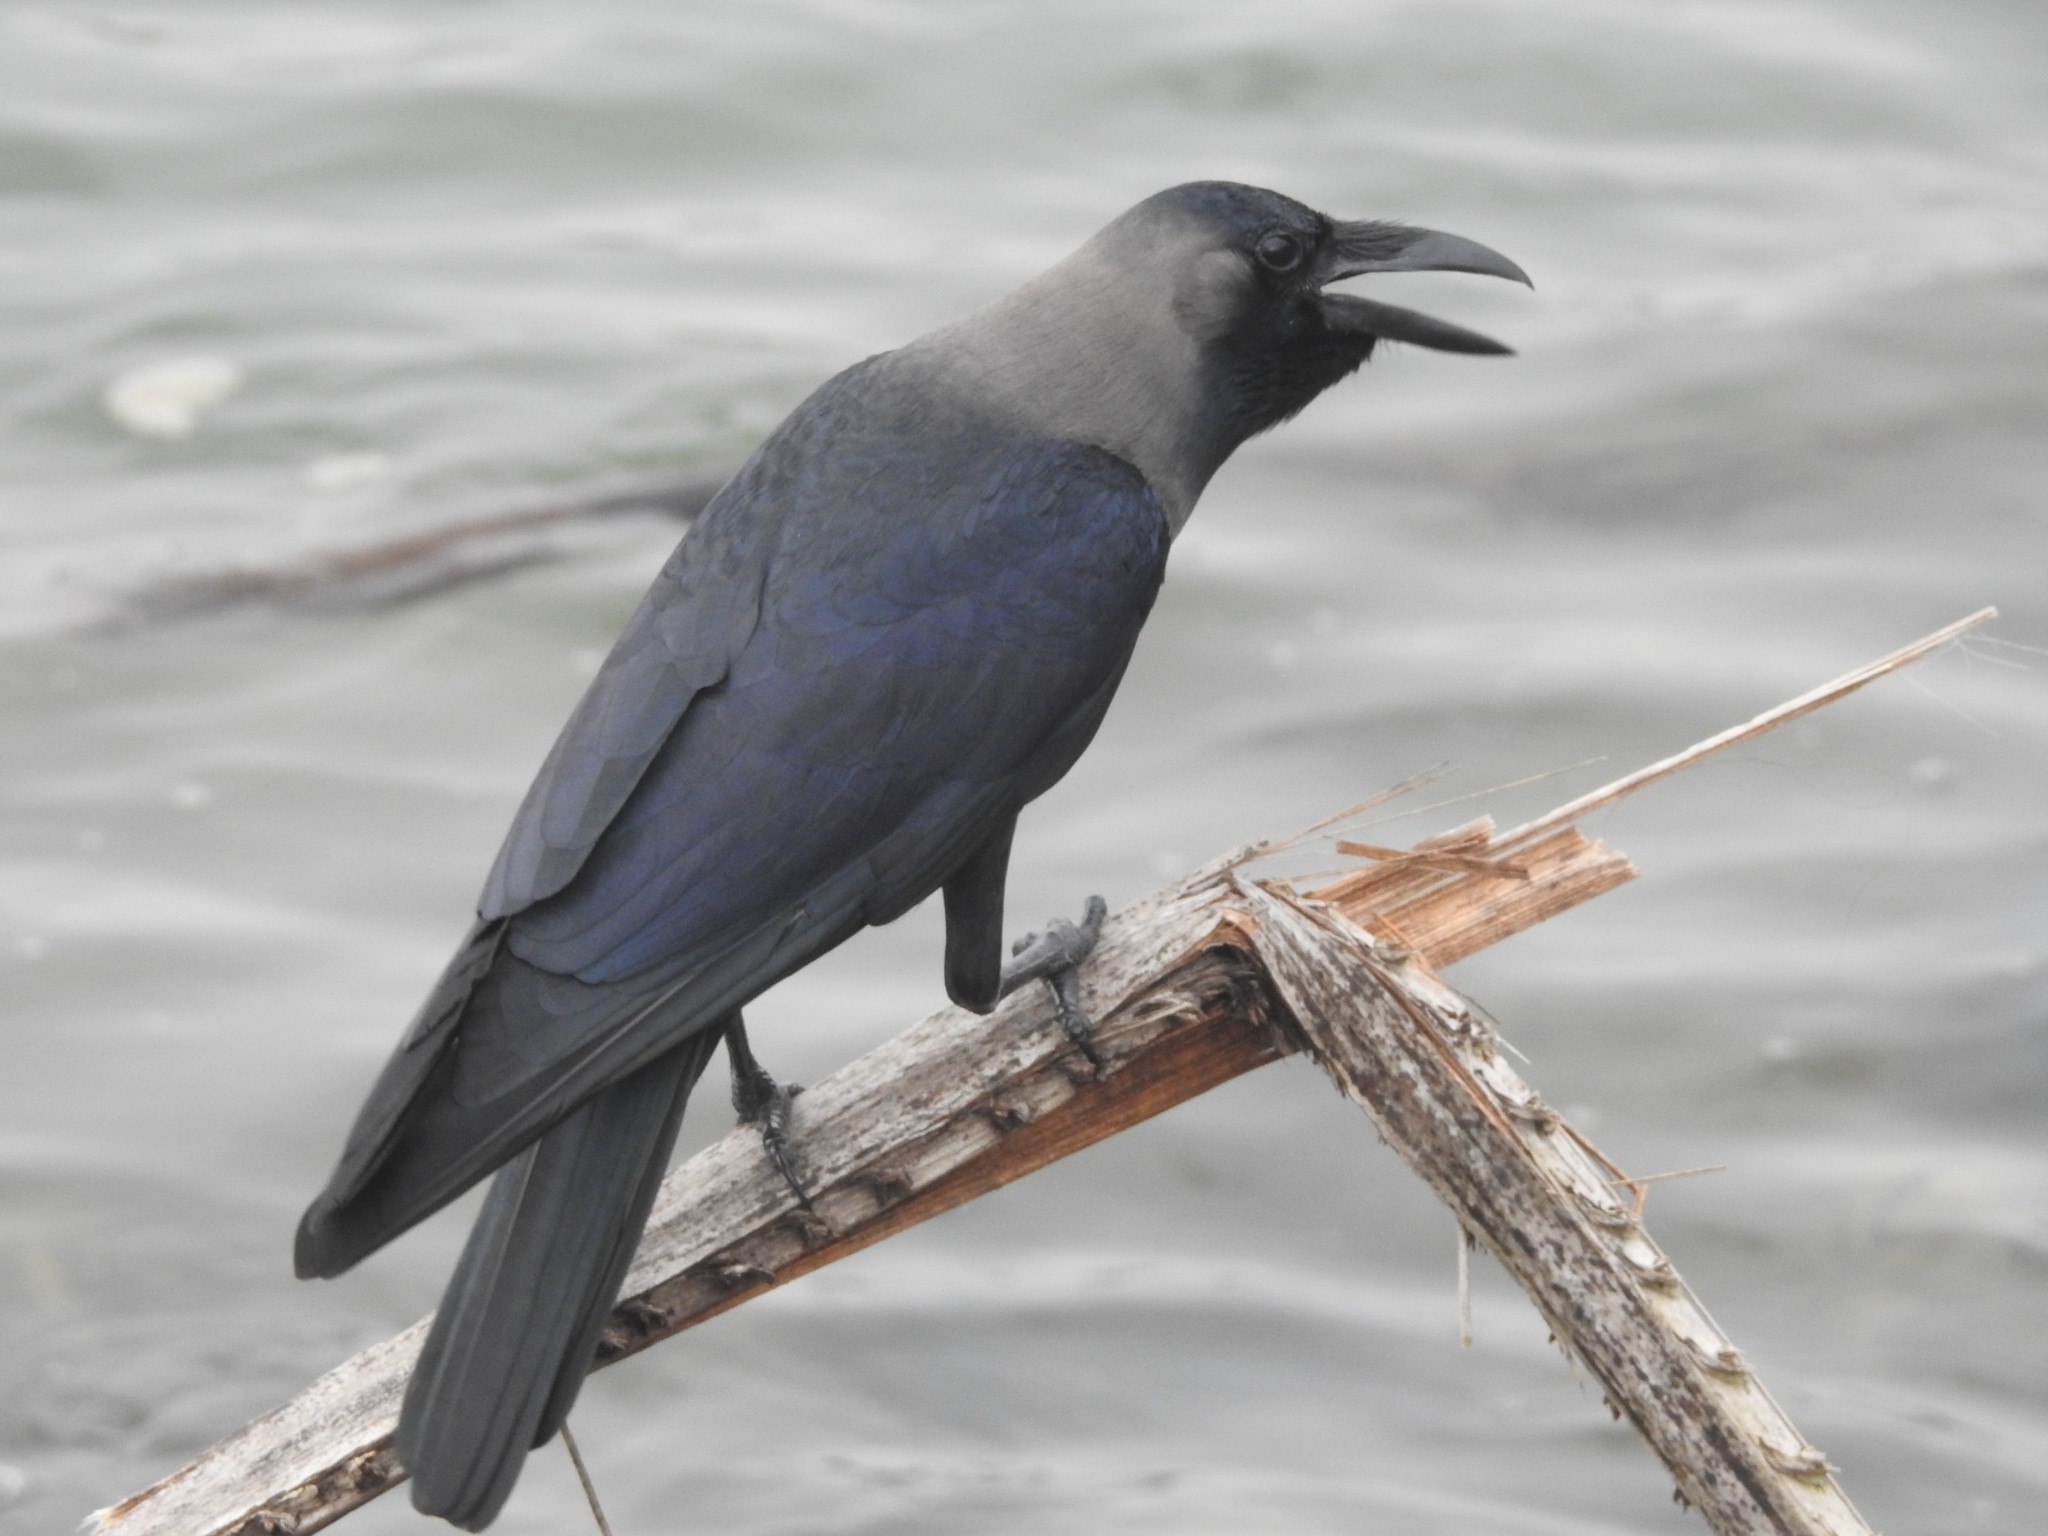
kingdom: Animalia
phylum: Chordata
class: Aves
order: Passeriformes
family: Corvidae
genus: Corvus
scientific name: Corvus splendens
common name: House crow
